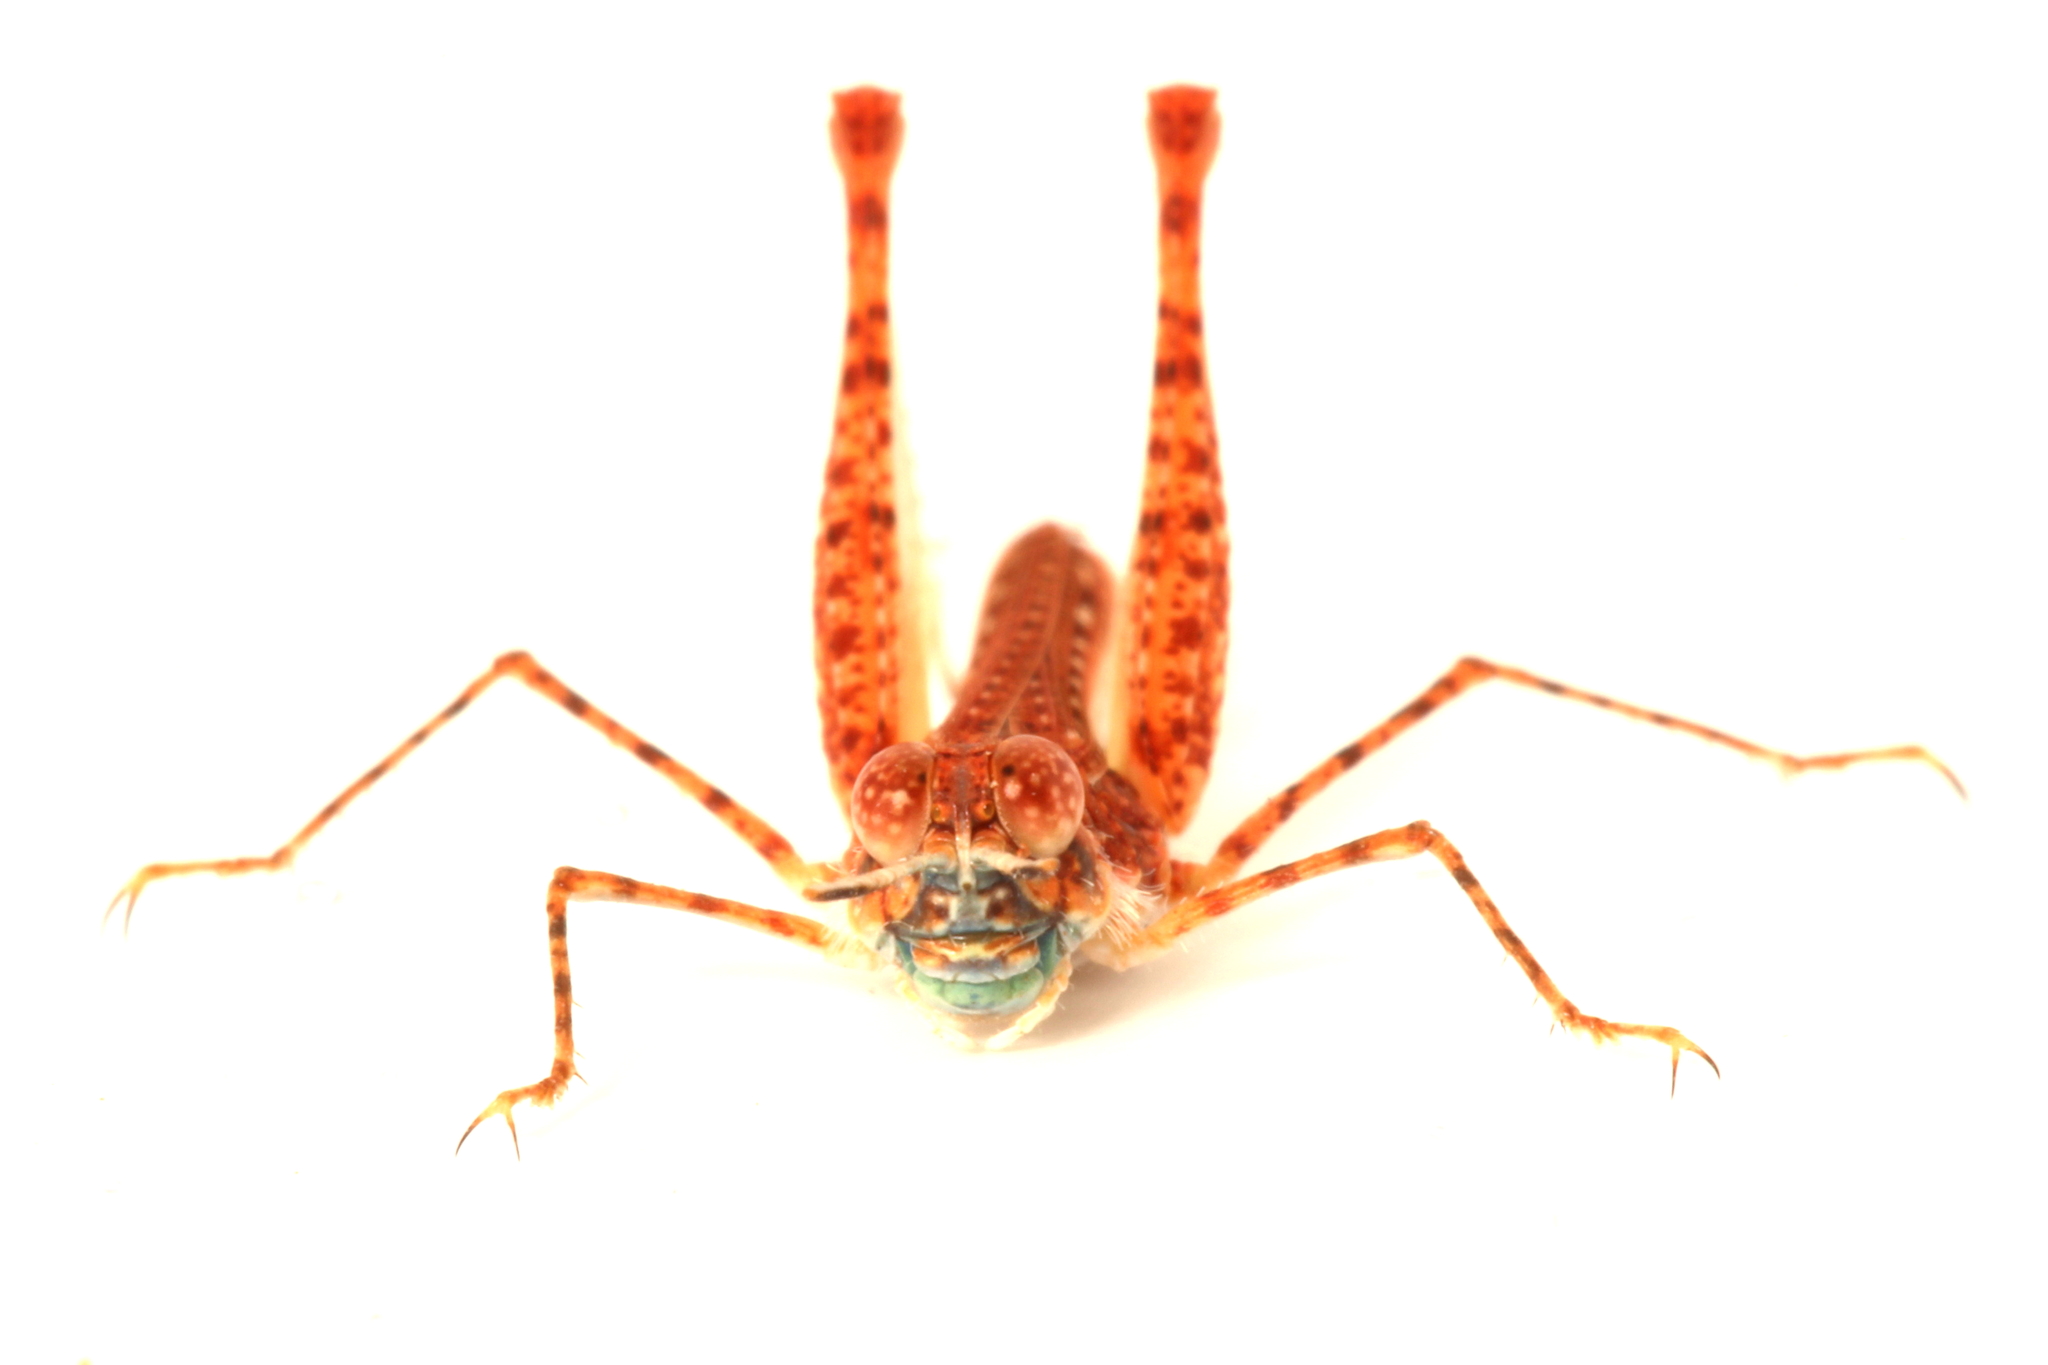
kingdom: Animalia
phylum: Arthropoda
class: Insecta
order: Orthoptera
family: Acrididae
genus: Urnisiella
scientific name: Urnisiella rubropunctata
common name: Long-legged sandhopper
